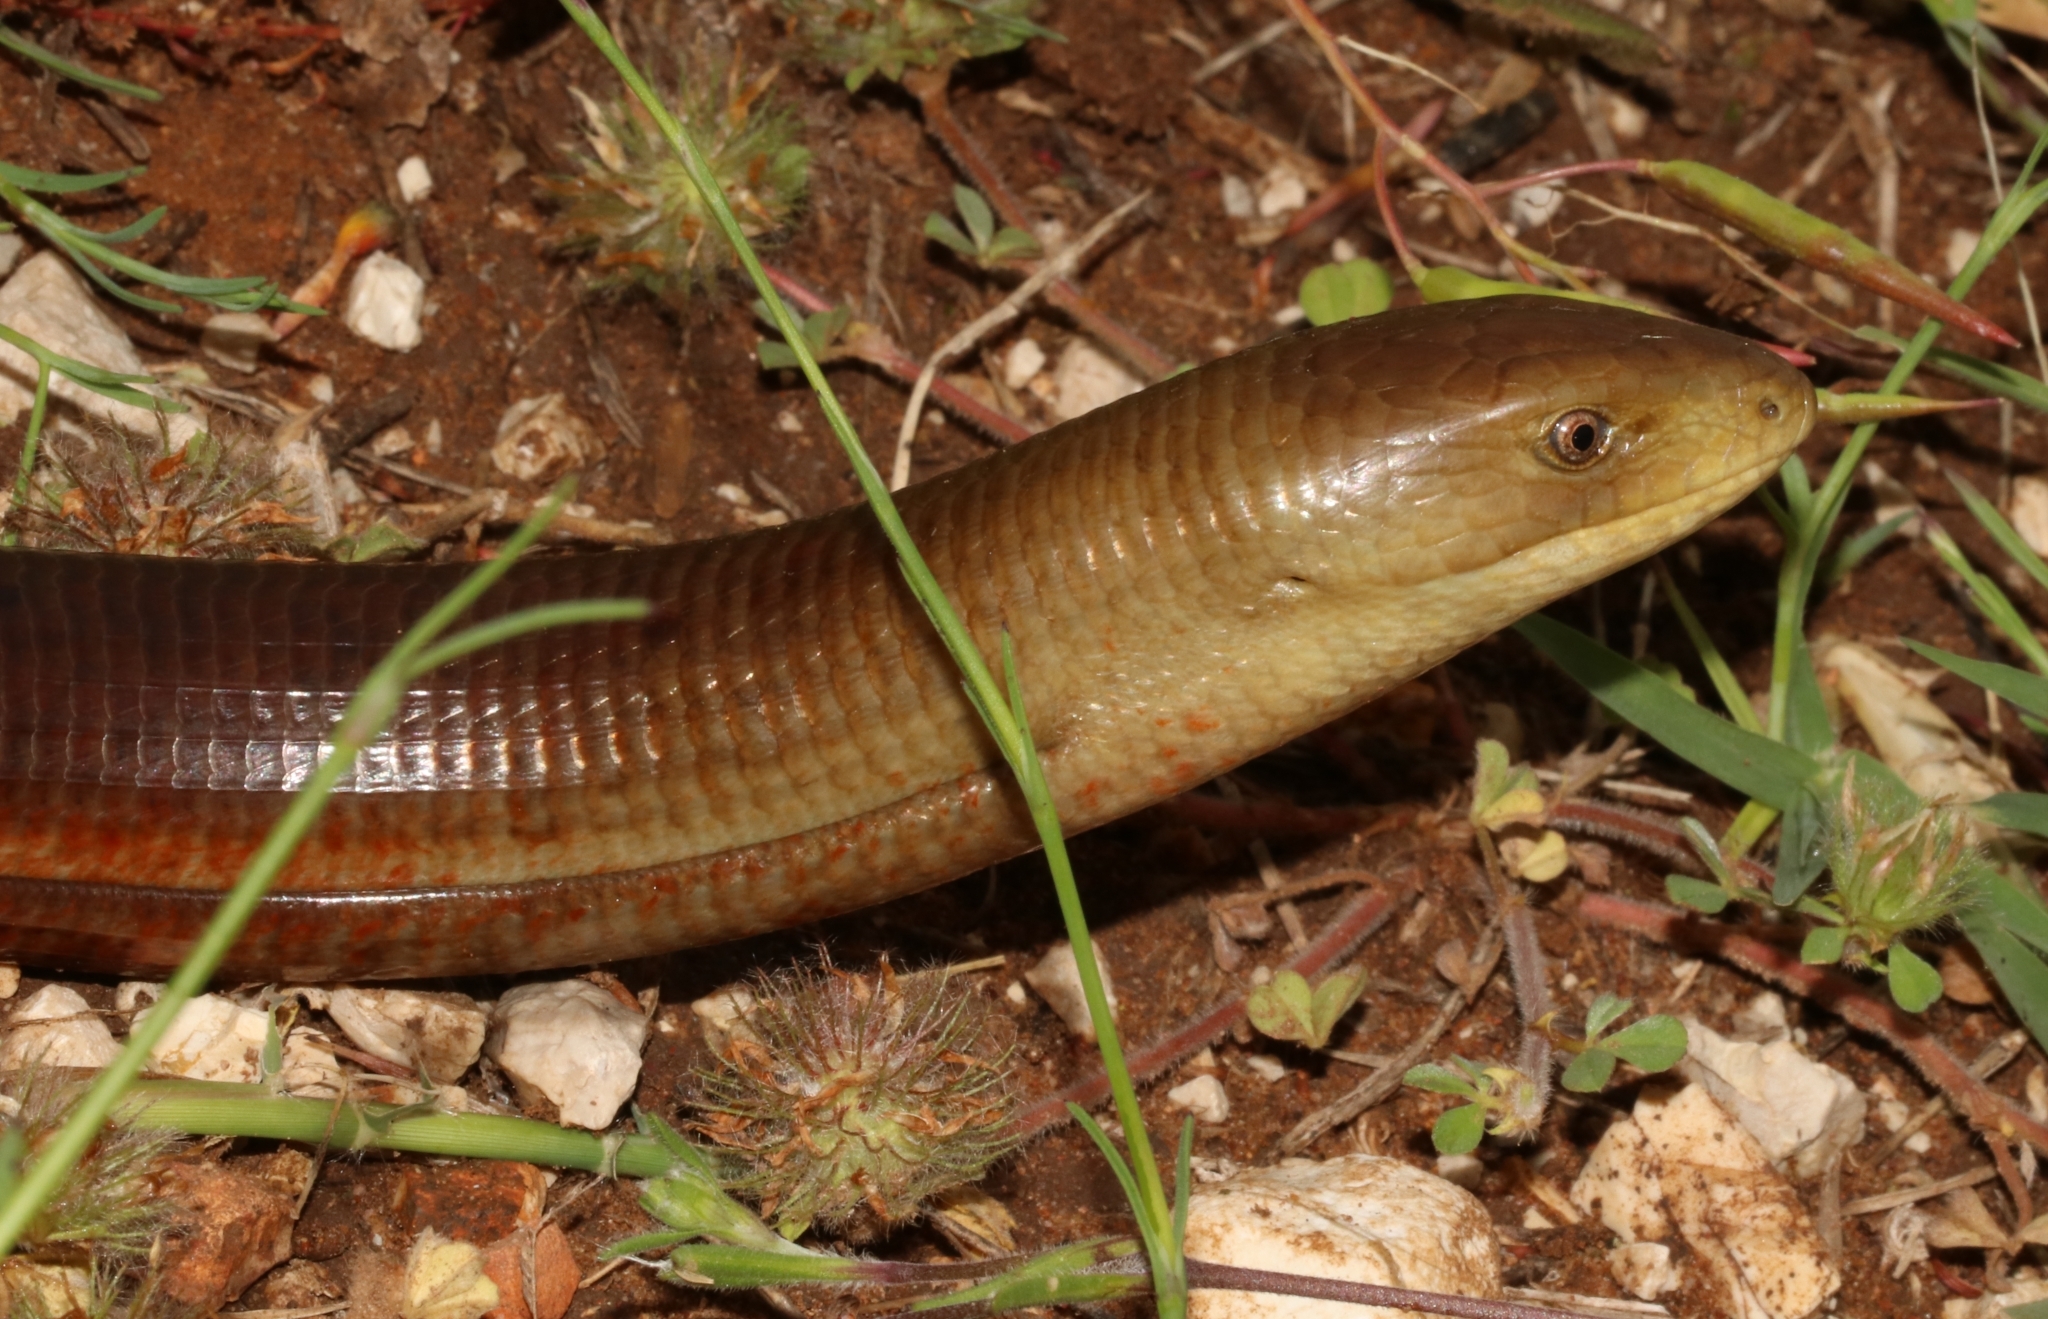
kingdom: Animalia
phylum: Chordata
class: Squamata
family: Anguidae
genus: Pseudopus
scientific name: Pseudopus apodus
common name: European glass lizard
